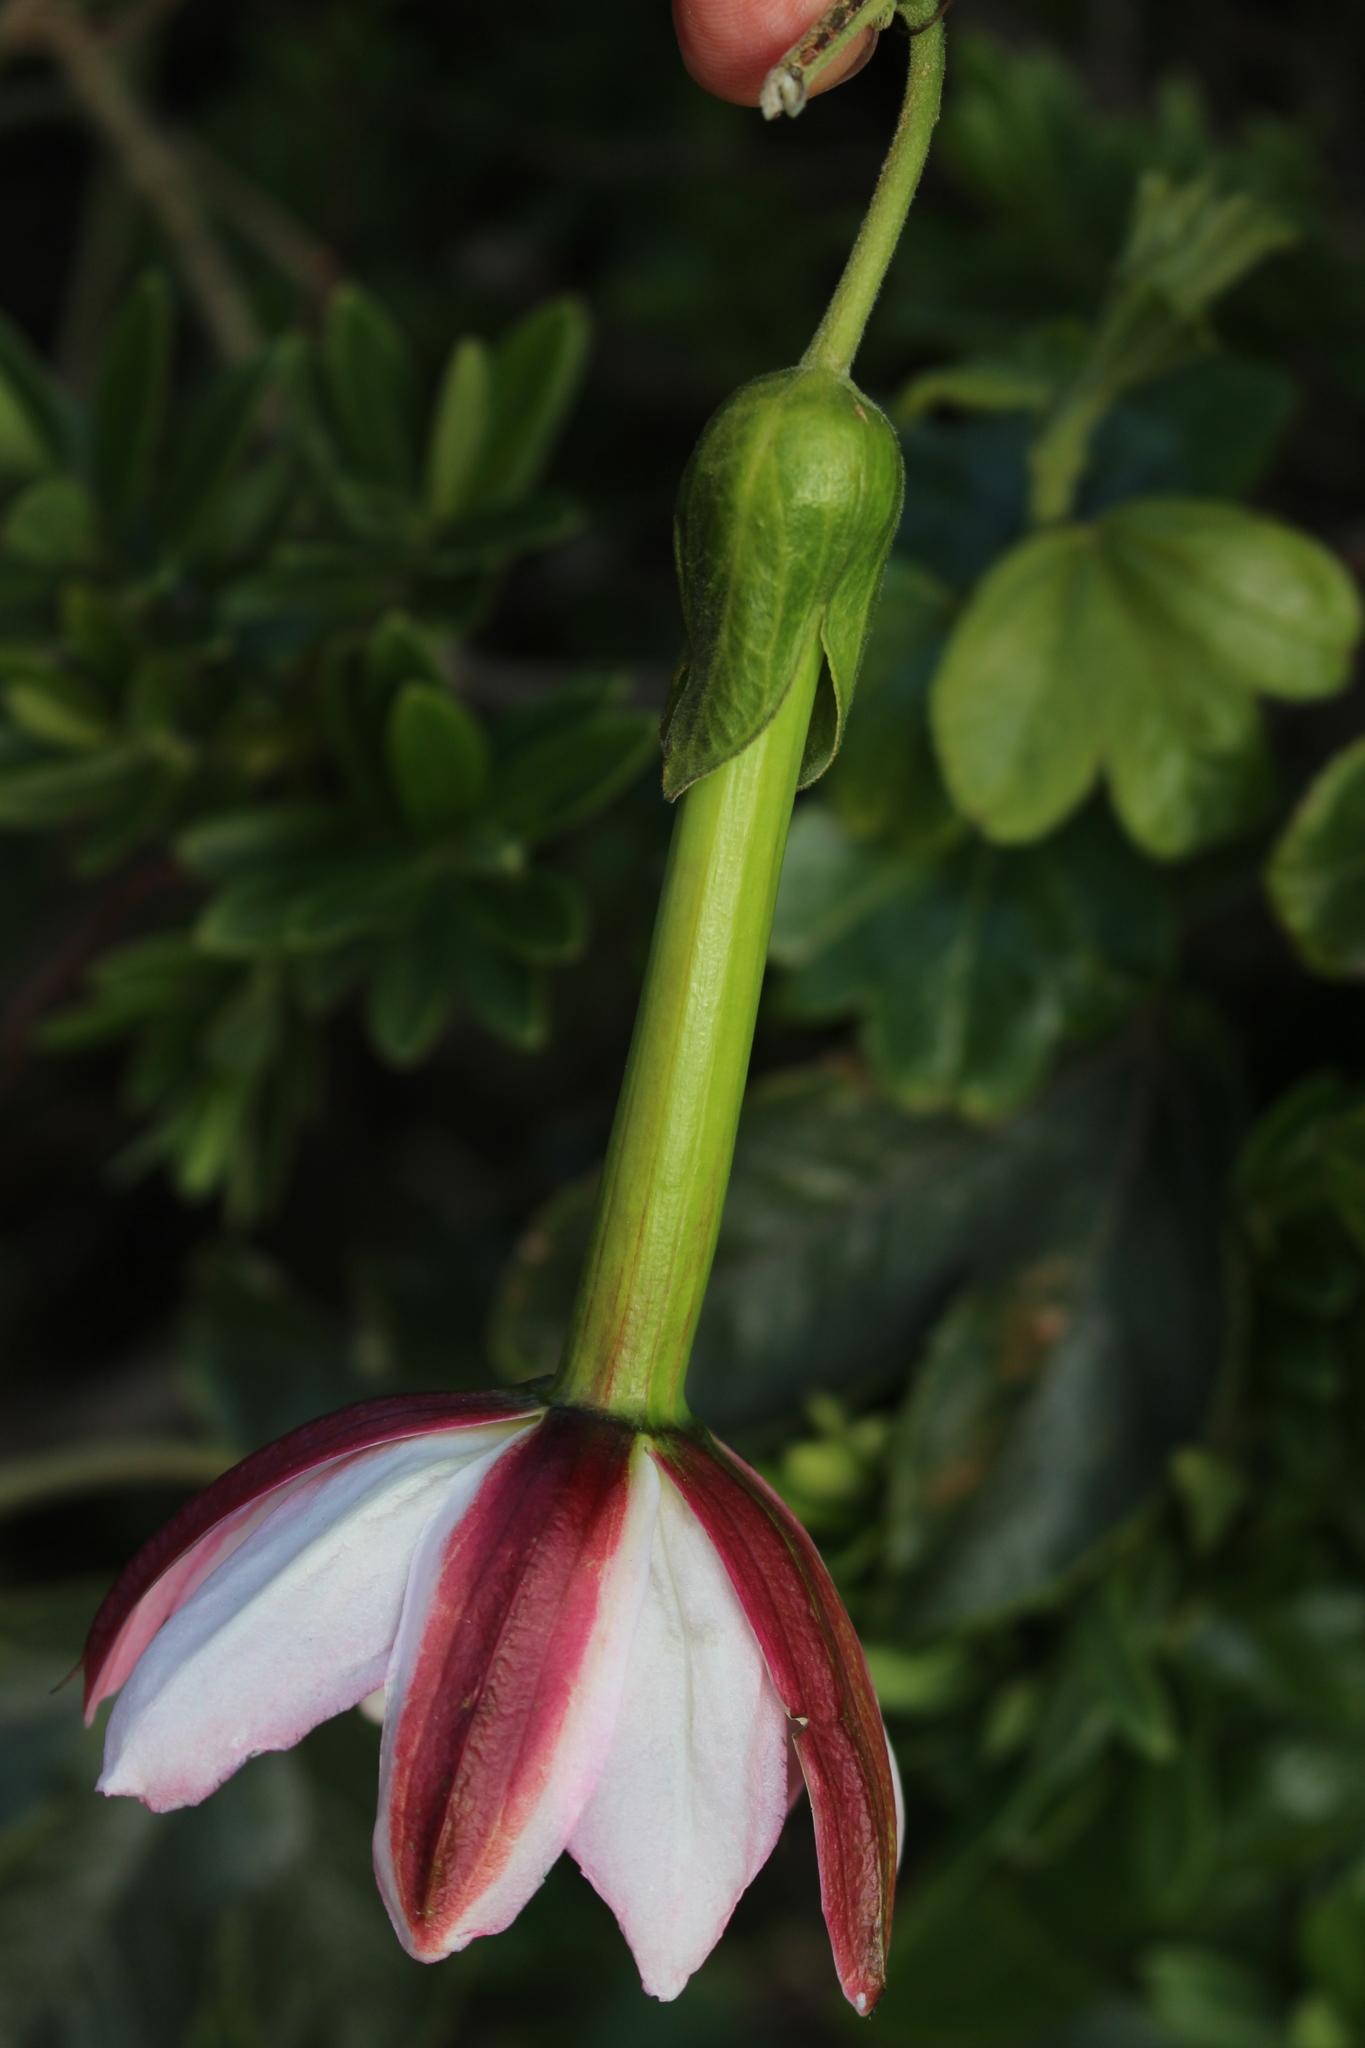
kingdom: Plantae
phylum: Tracheophyta
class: Magnoliopsida
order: Malpighiales
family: Passifloraceae
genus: Passiflora
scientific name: Passiflora tripartita
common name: Banana poka
